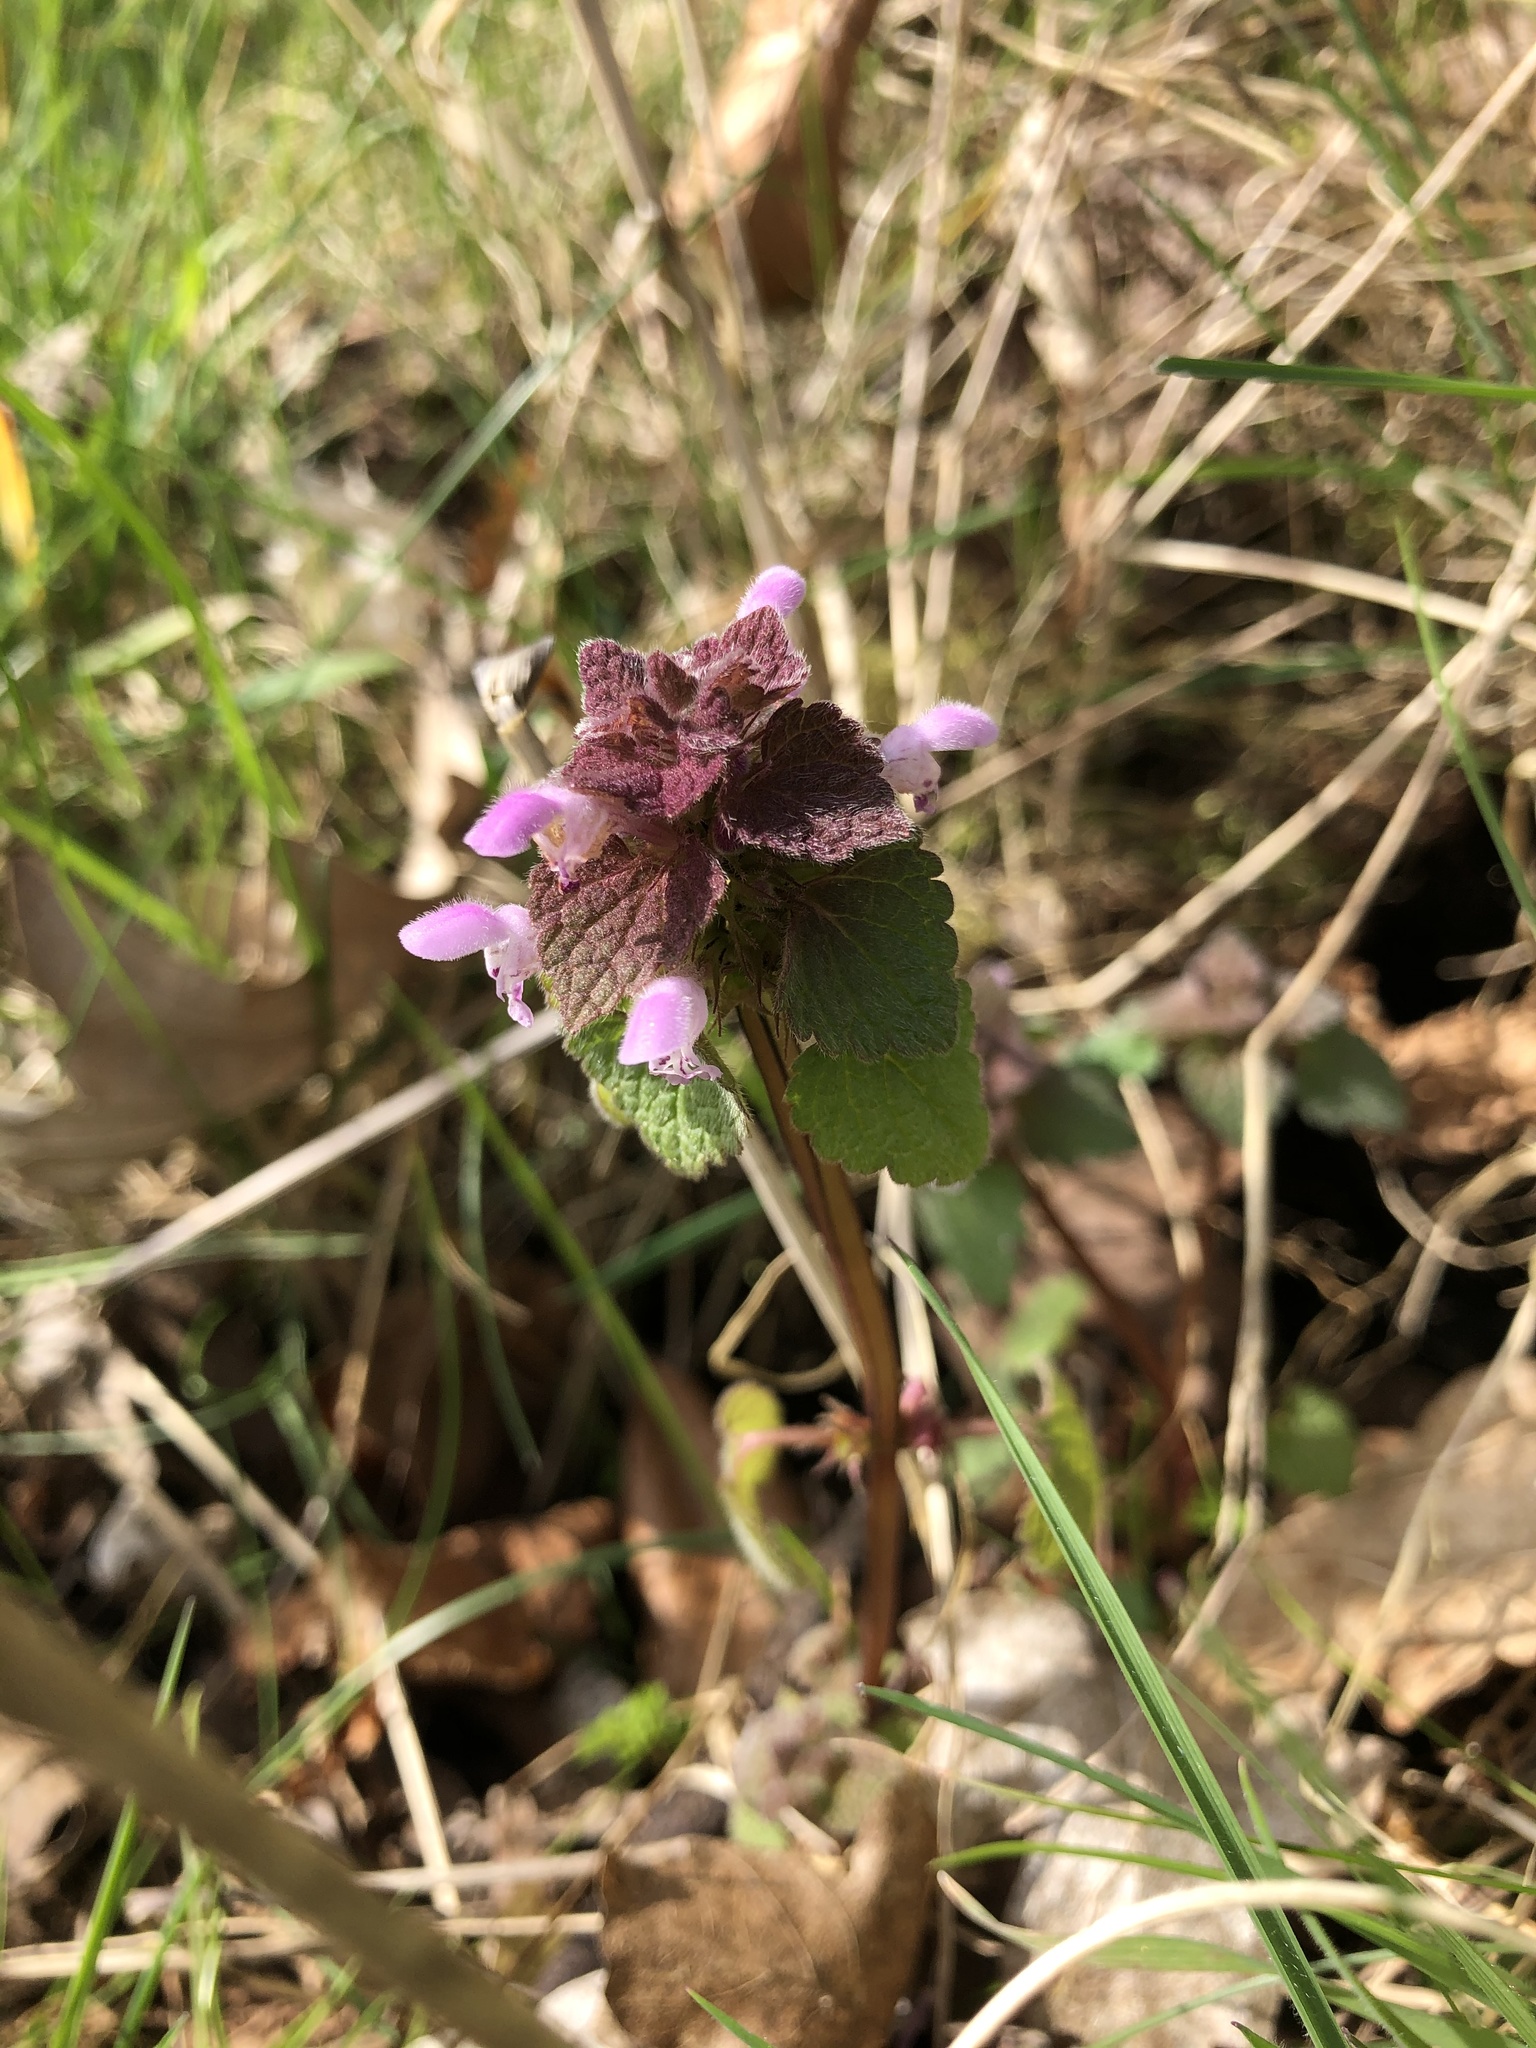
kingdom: Plantae
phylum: Tracheophyta
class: Magnoliopsida
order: Lamiales
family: Lamiaceae
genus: Lamium
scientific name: Lamium purpureum
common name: Red dead-nettle
